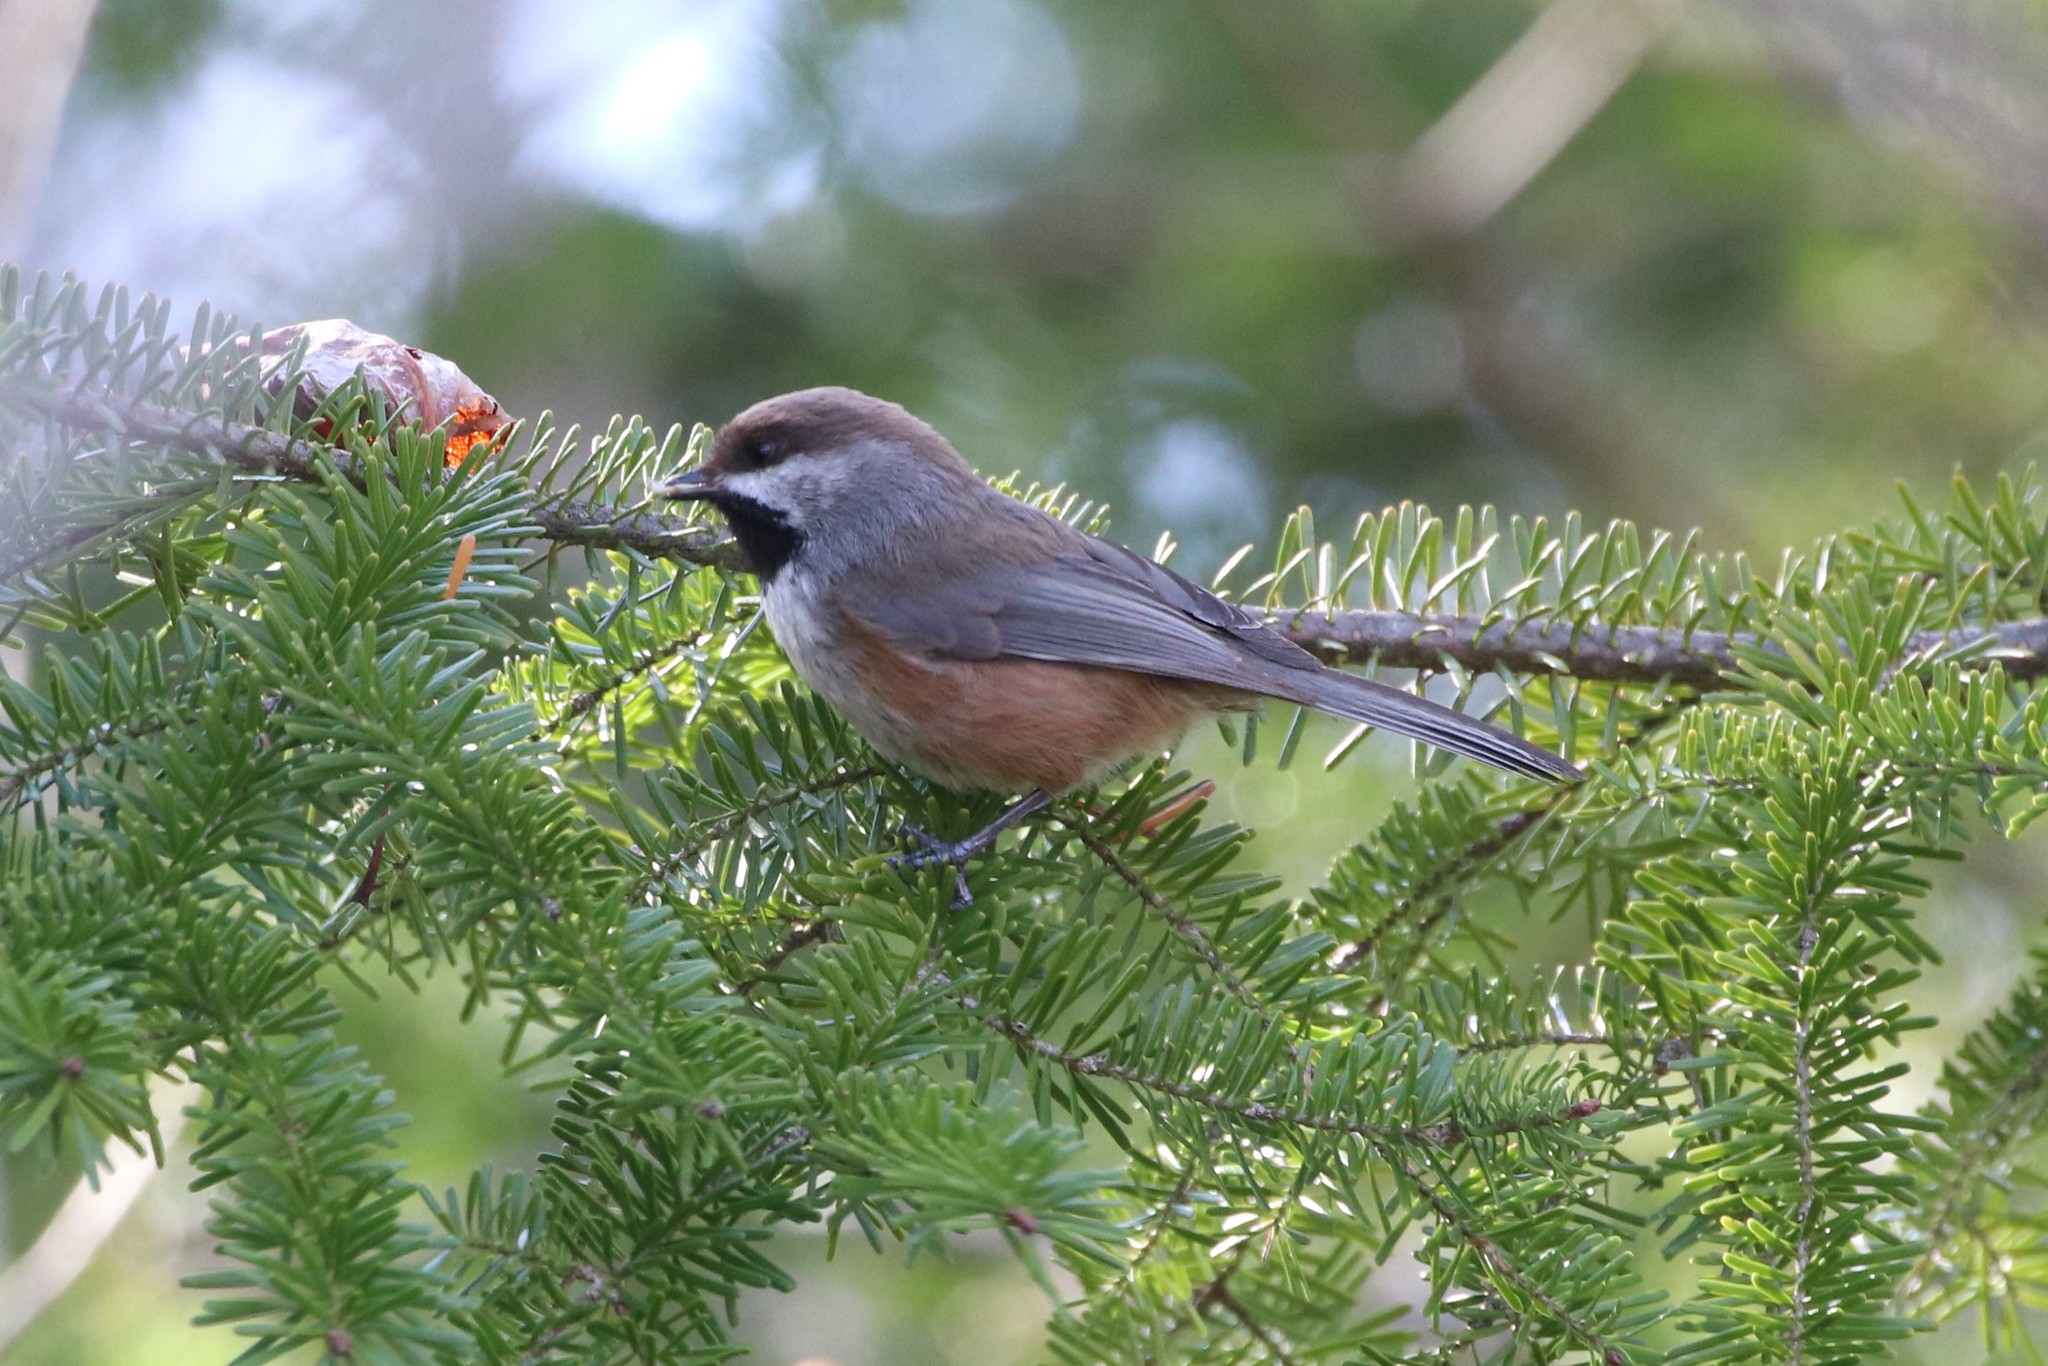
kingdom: Animalia
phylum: Chordata
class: Aves
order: Passeriformes
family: Paridae
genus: Poecile
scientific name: Poecile hudsonicus
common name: Boreal chickadee
